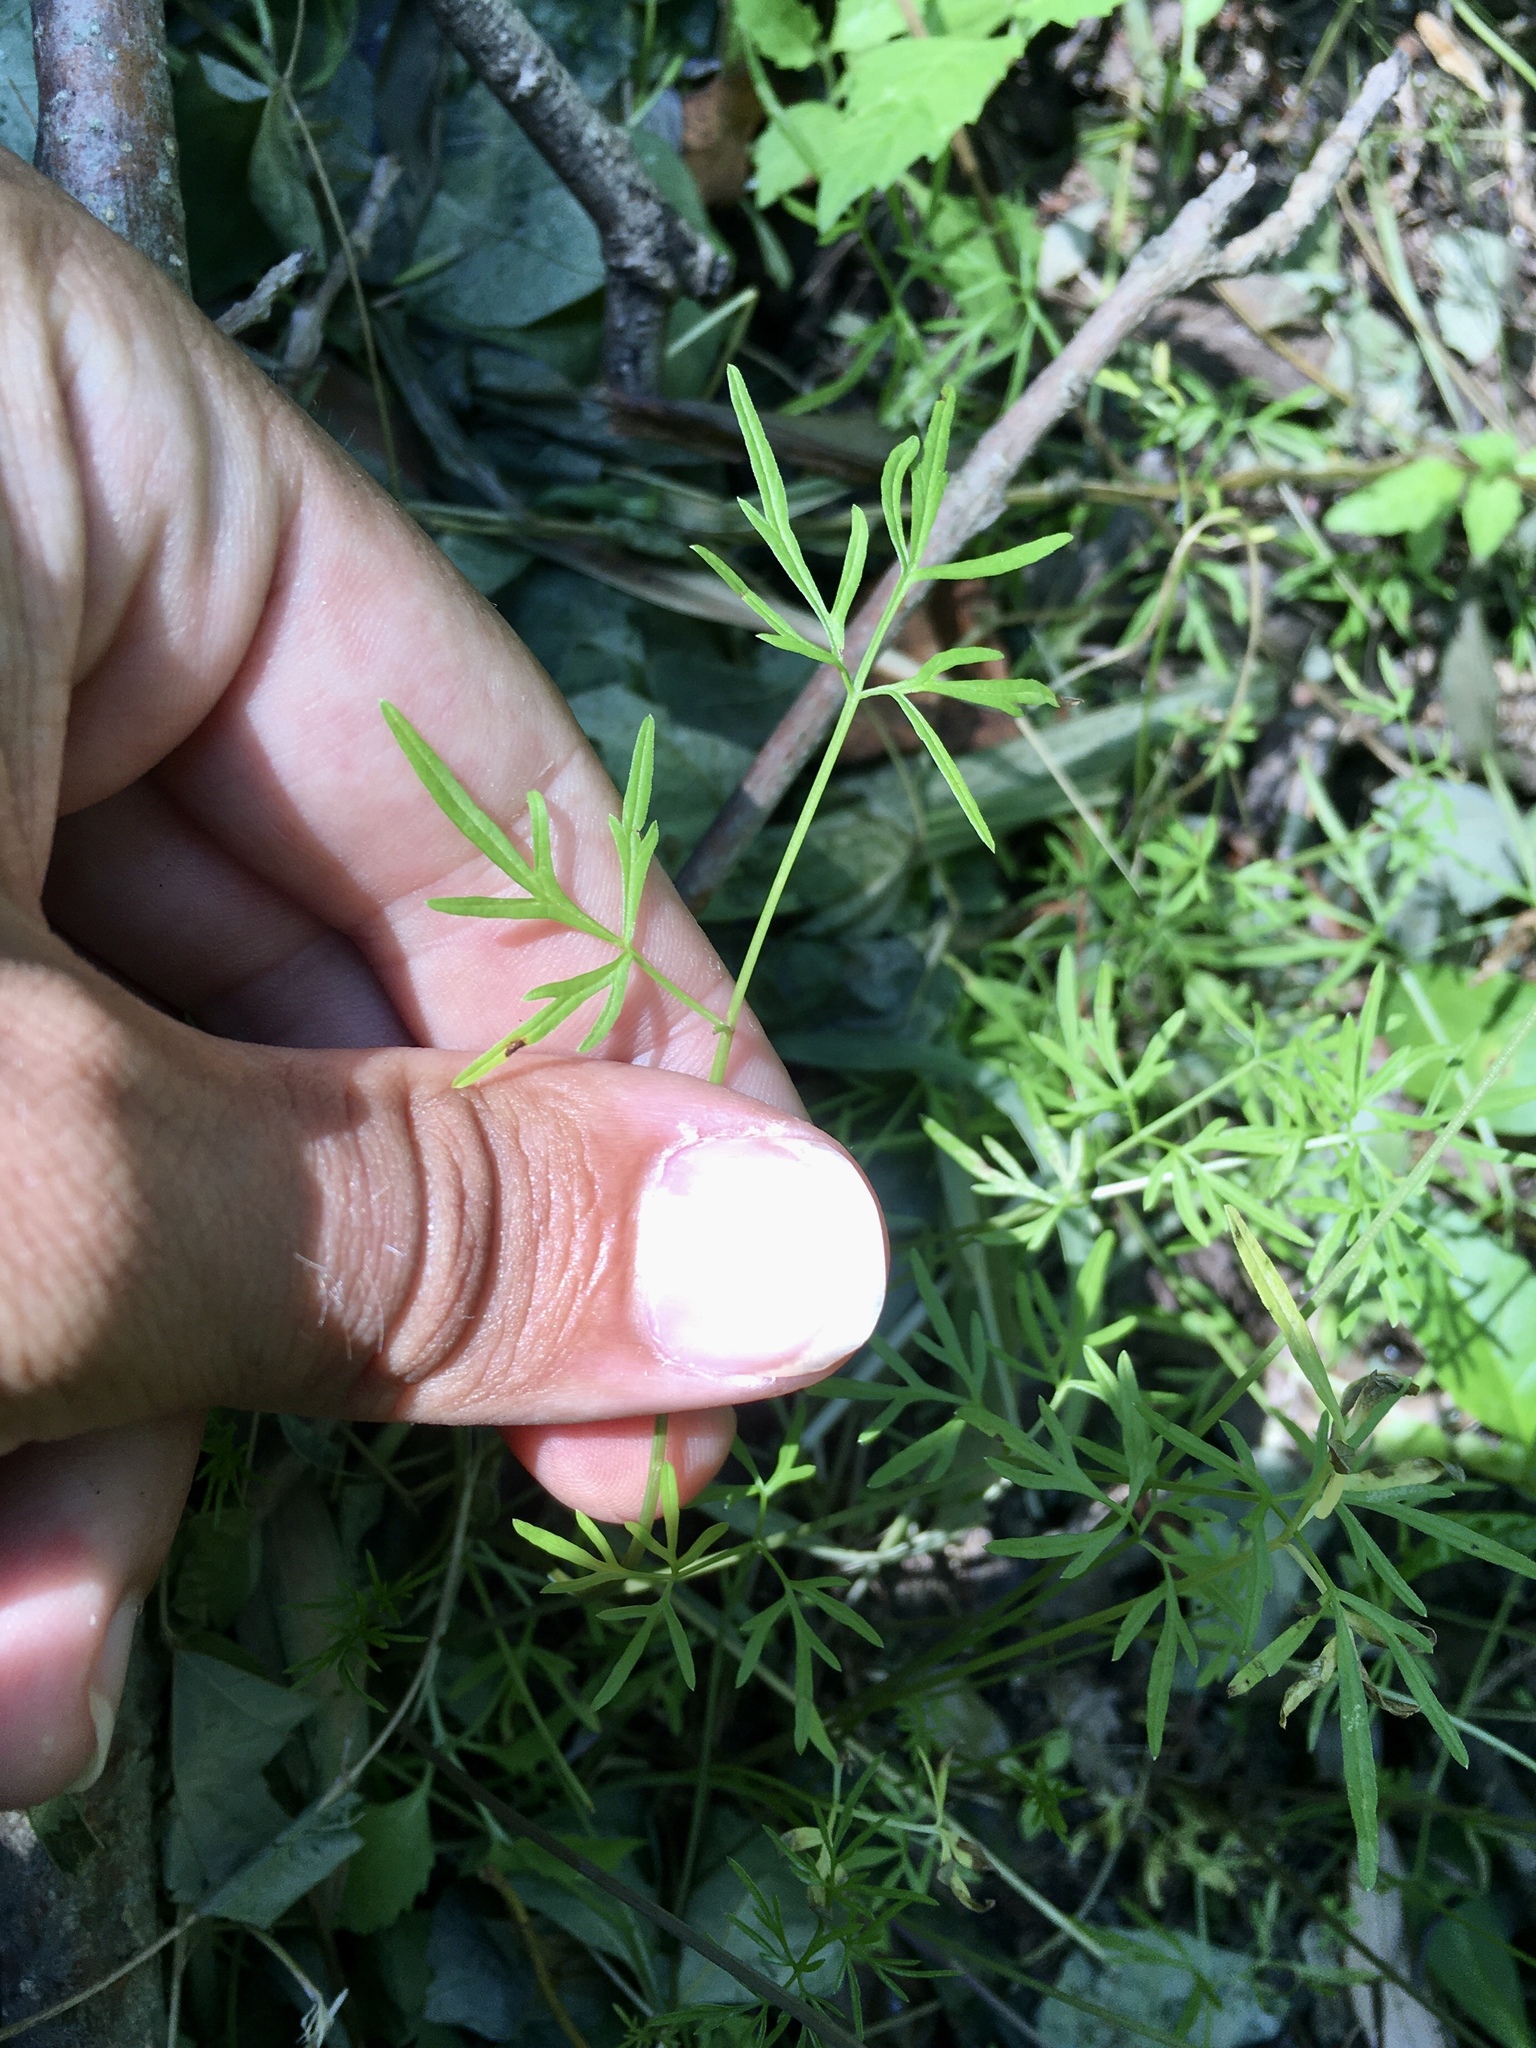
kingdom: Plantae
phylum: Tracheophyta
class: Magnoliopsida
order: Apiales
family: Apiaceae
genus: Cicuta
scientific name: Cicuta bulbifera
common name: Bulb-bearing water-hemlock
